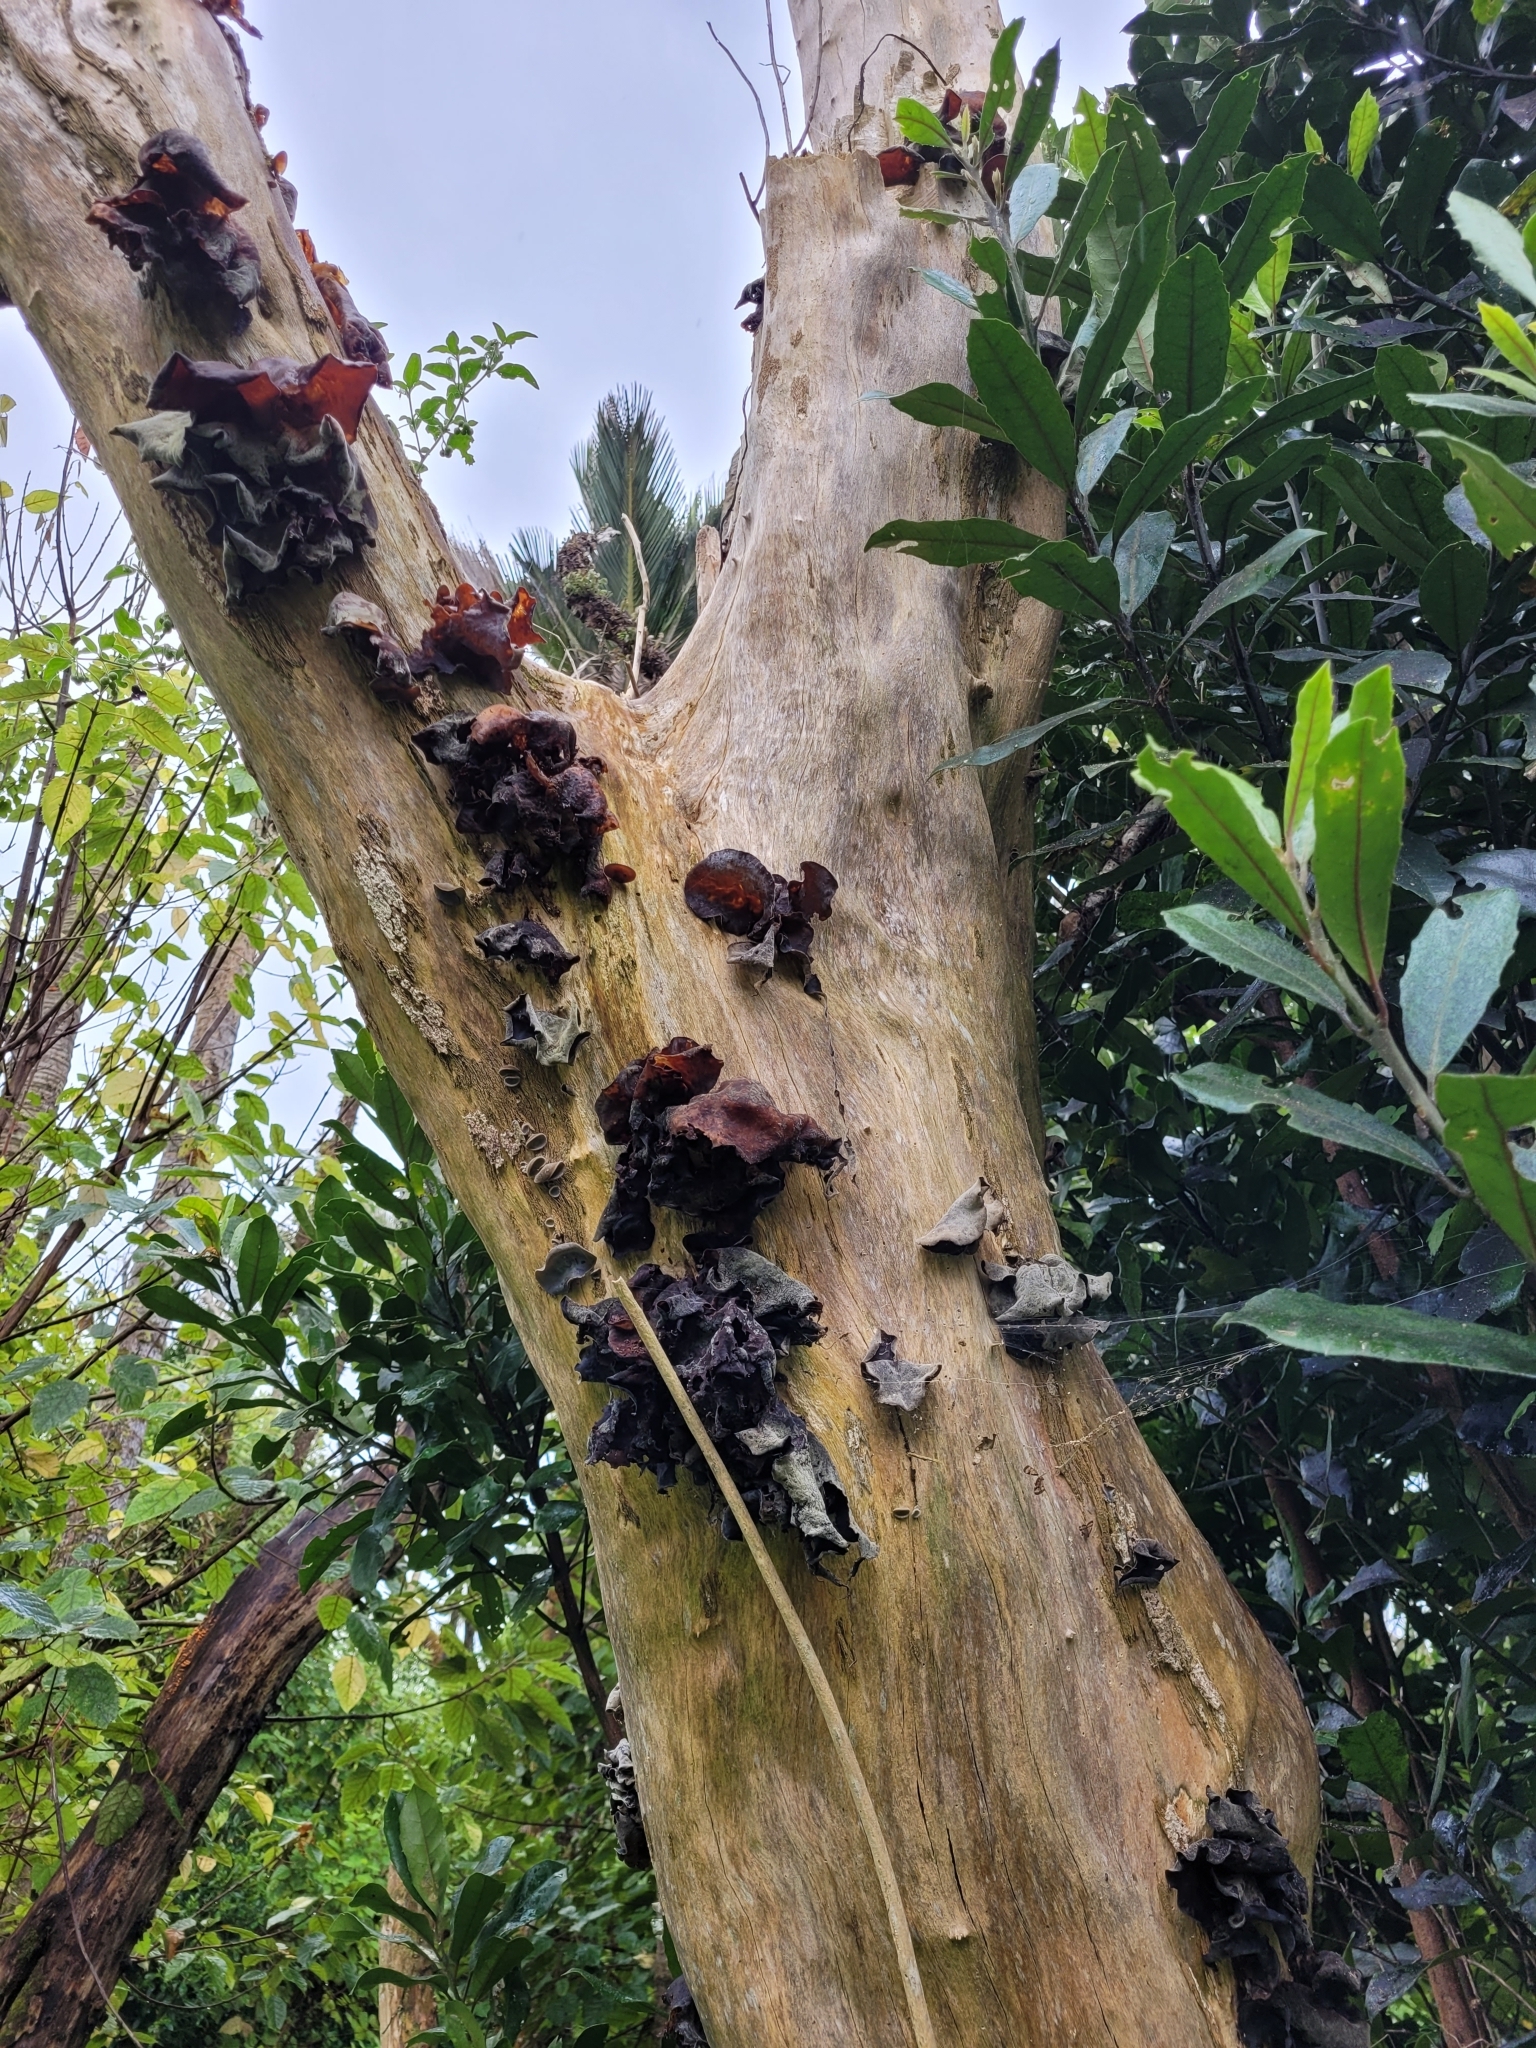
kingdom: Fungi
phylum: Basidiomycota
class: Agaricomycetes
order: Auriculariales
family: Auriculariaceae
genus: Auricularia
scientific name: Auricularia cornea
